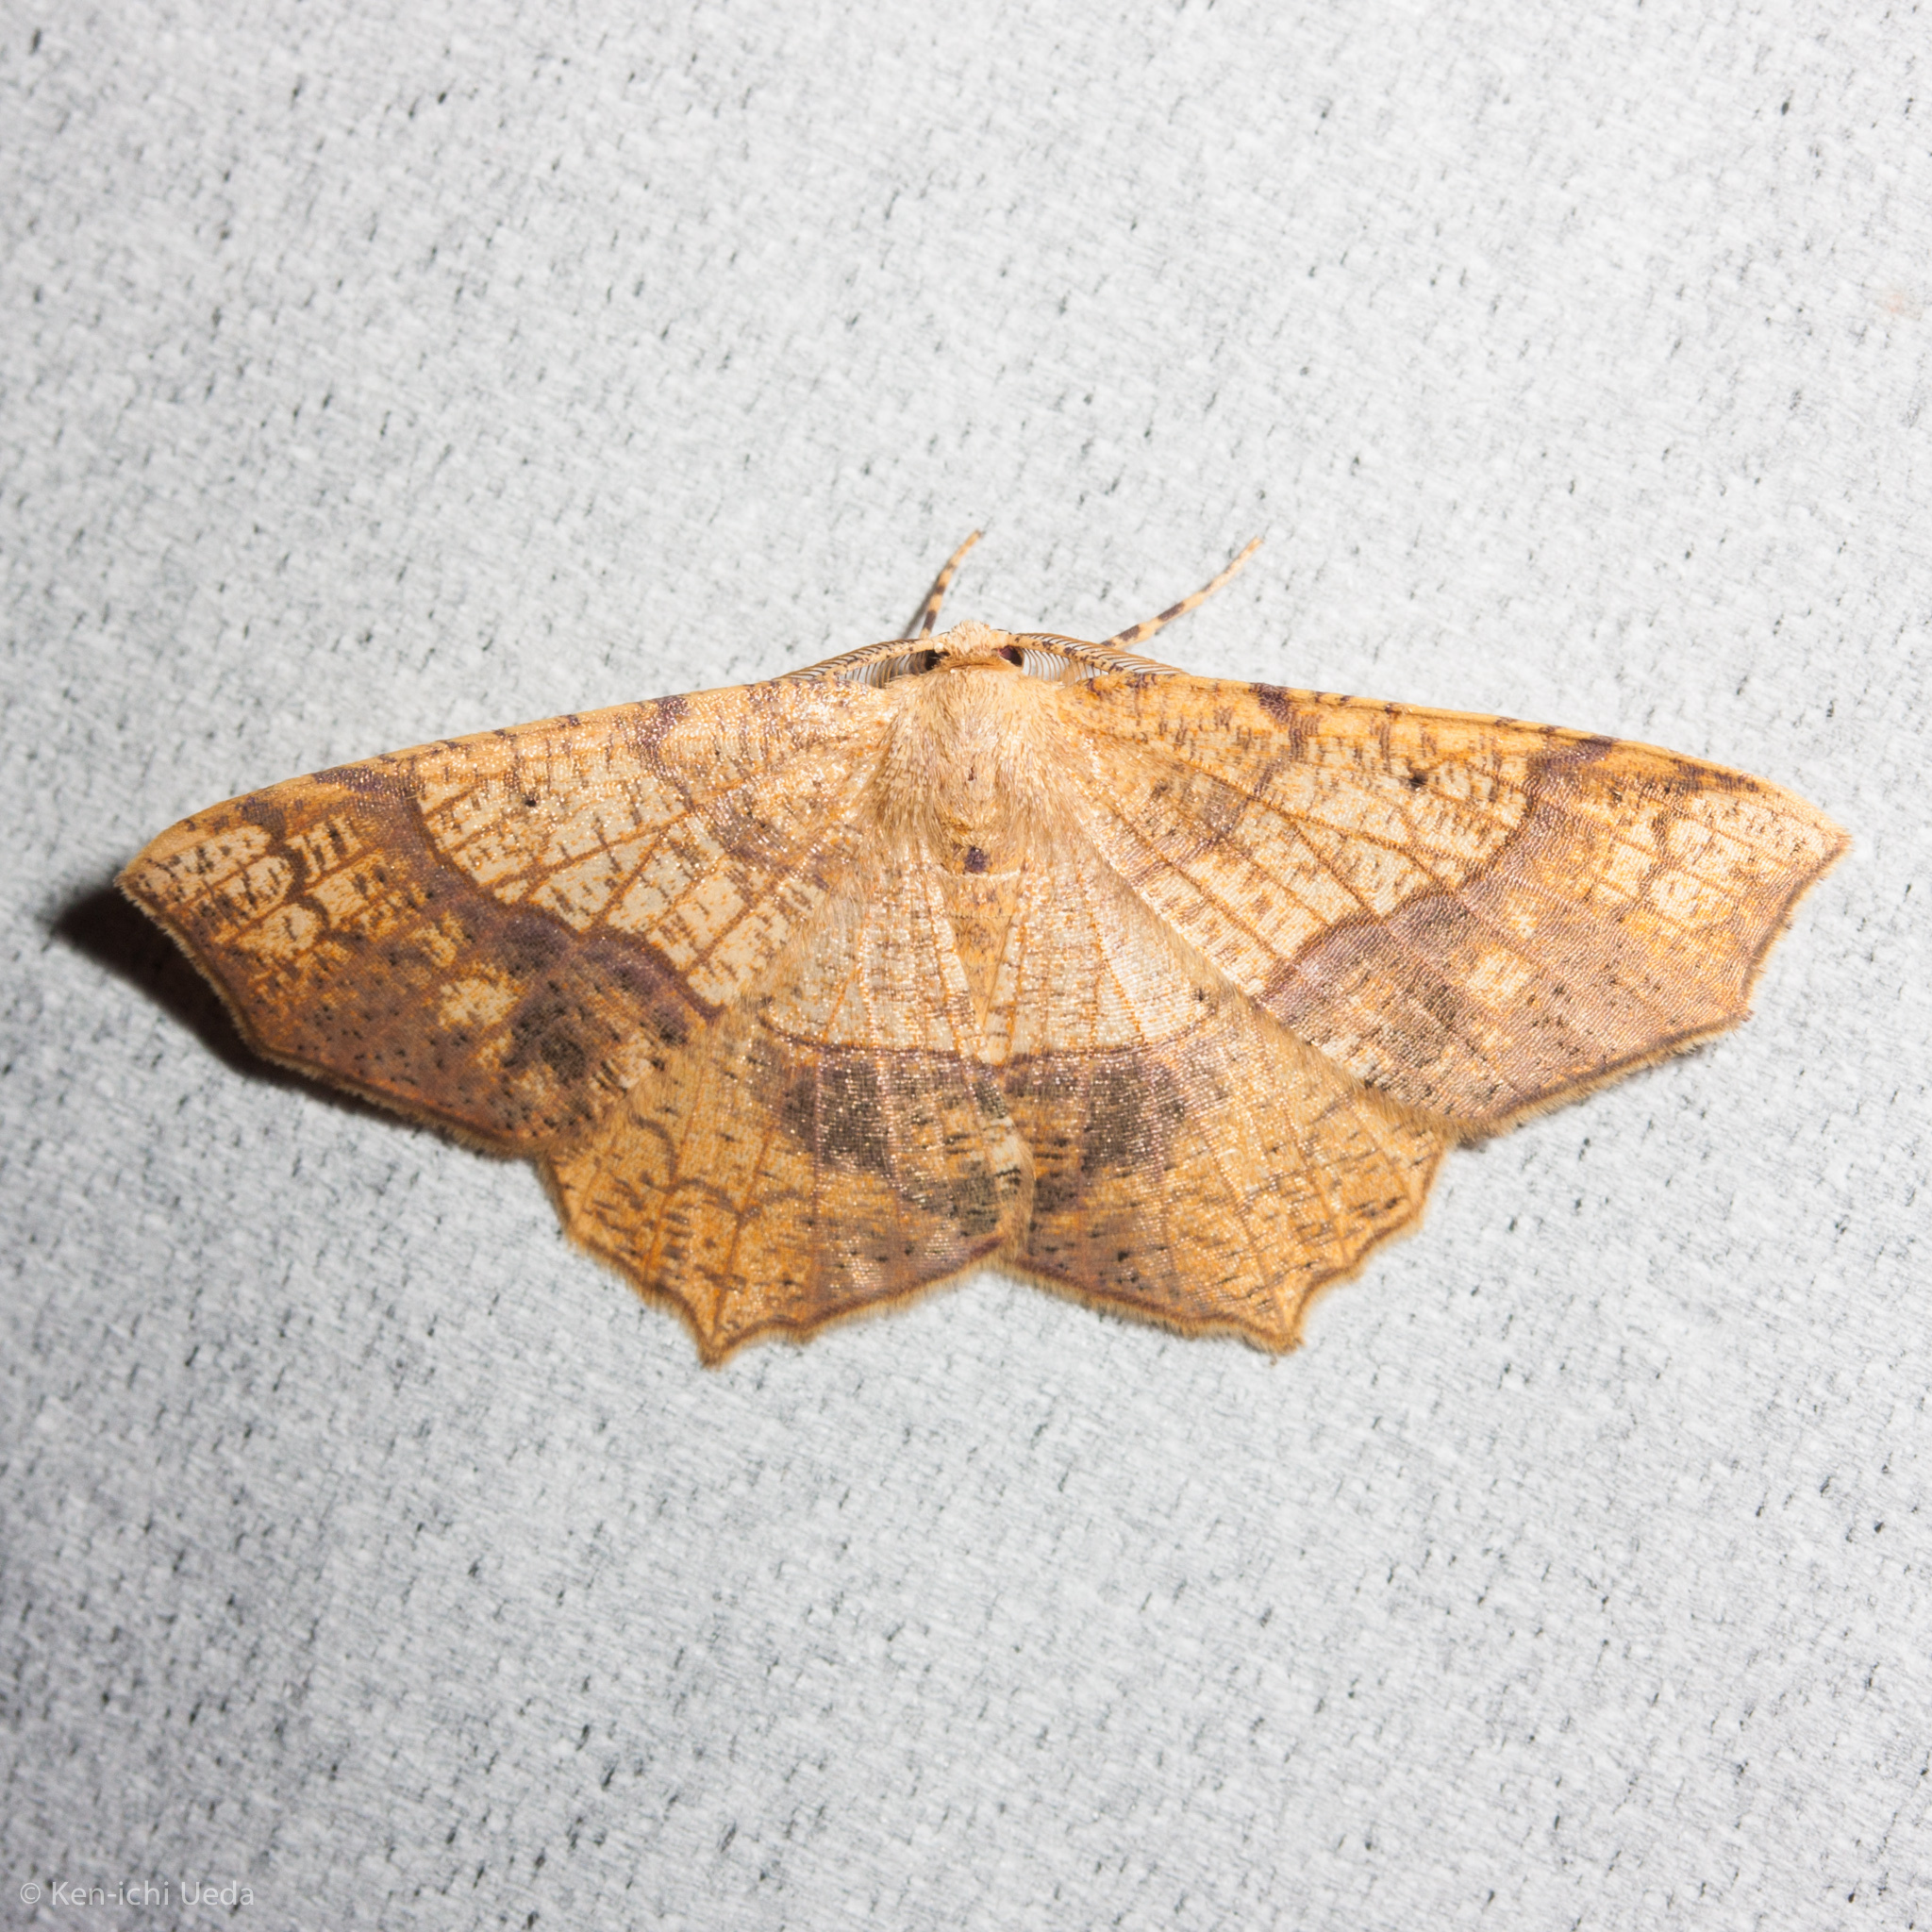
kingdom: Animalia
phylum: Arthropoda
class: Insecta
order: Lepidoptera
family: Geometridae
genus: Besma
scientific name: Besma quercivoraria
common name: Oak besma
